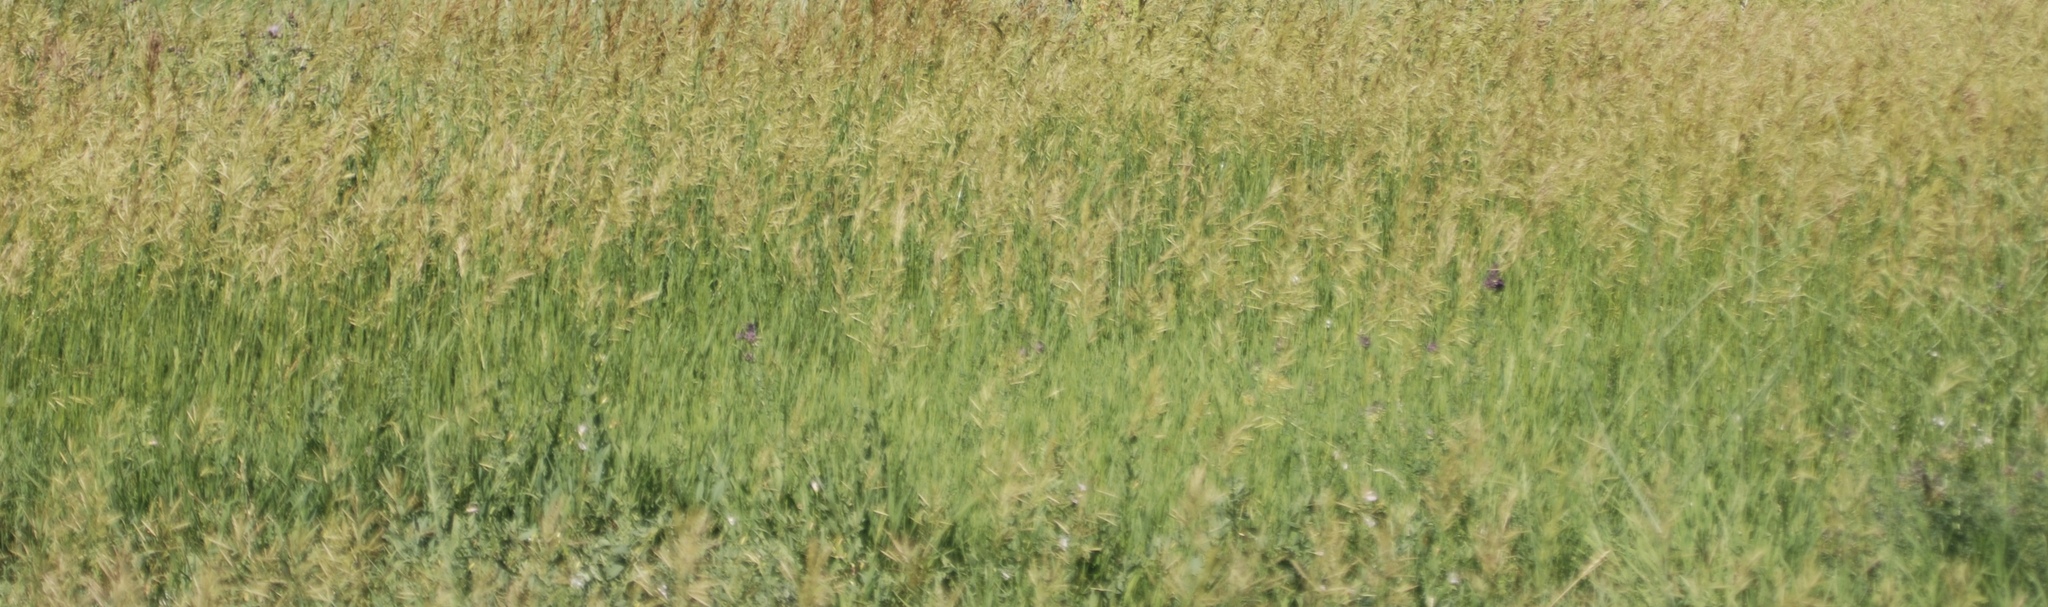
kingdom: Plantae
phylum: Tracheophyta
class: Liliopsida
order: Poales
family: Poaceae
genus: Bromus
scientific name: Bromus inermis
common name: Smooth brome
